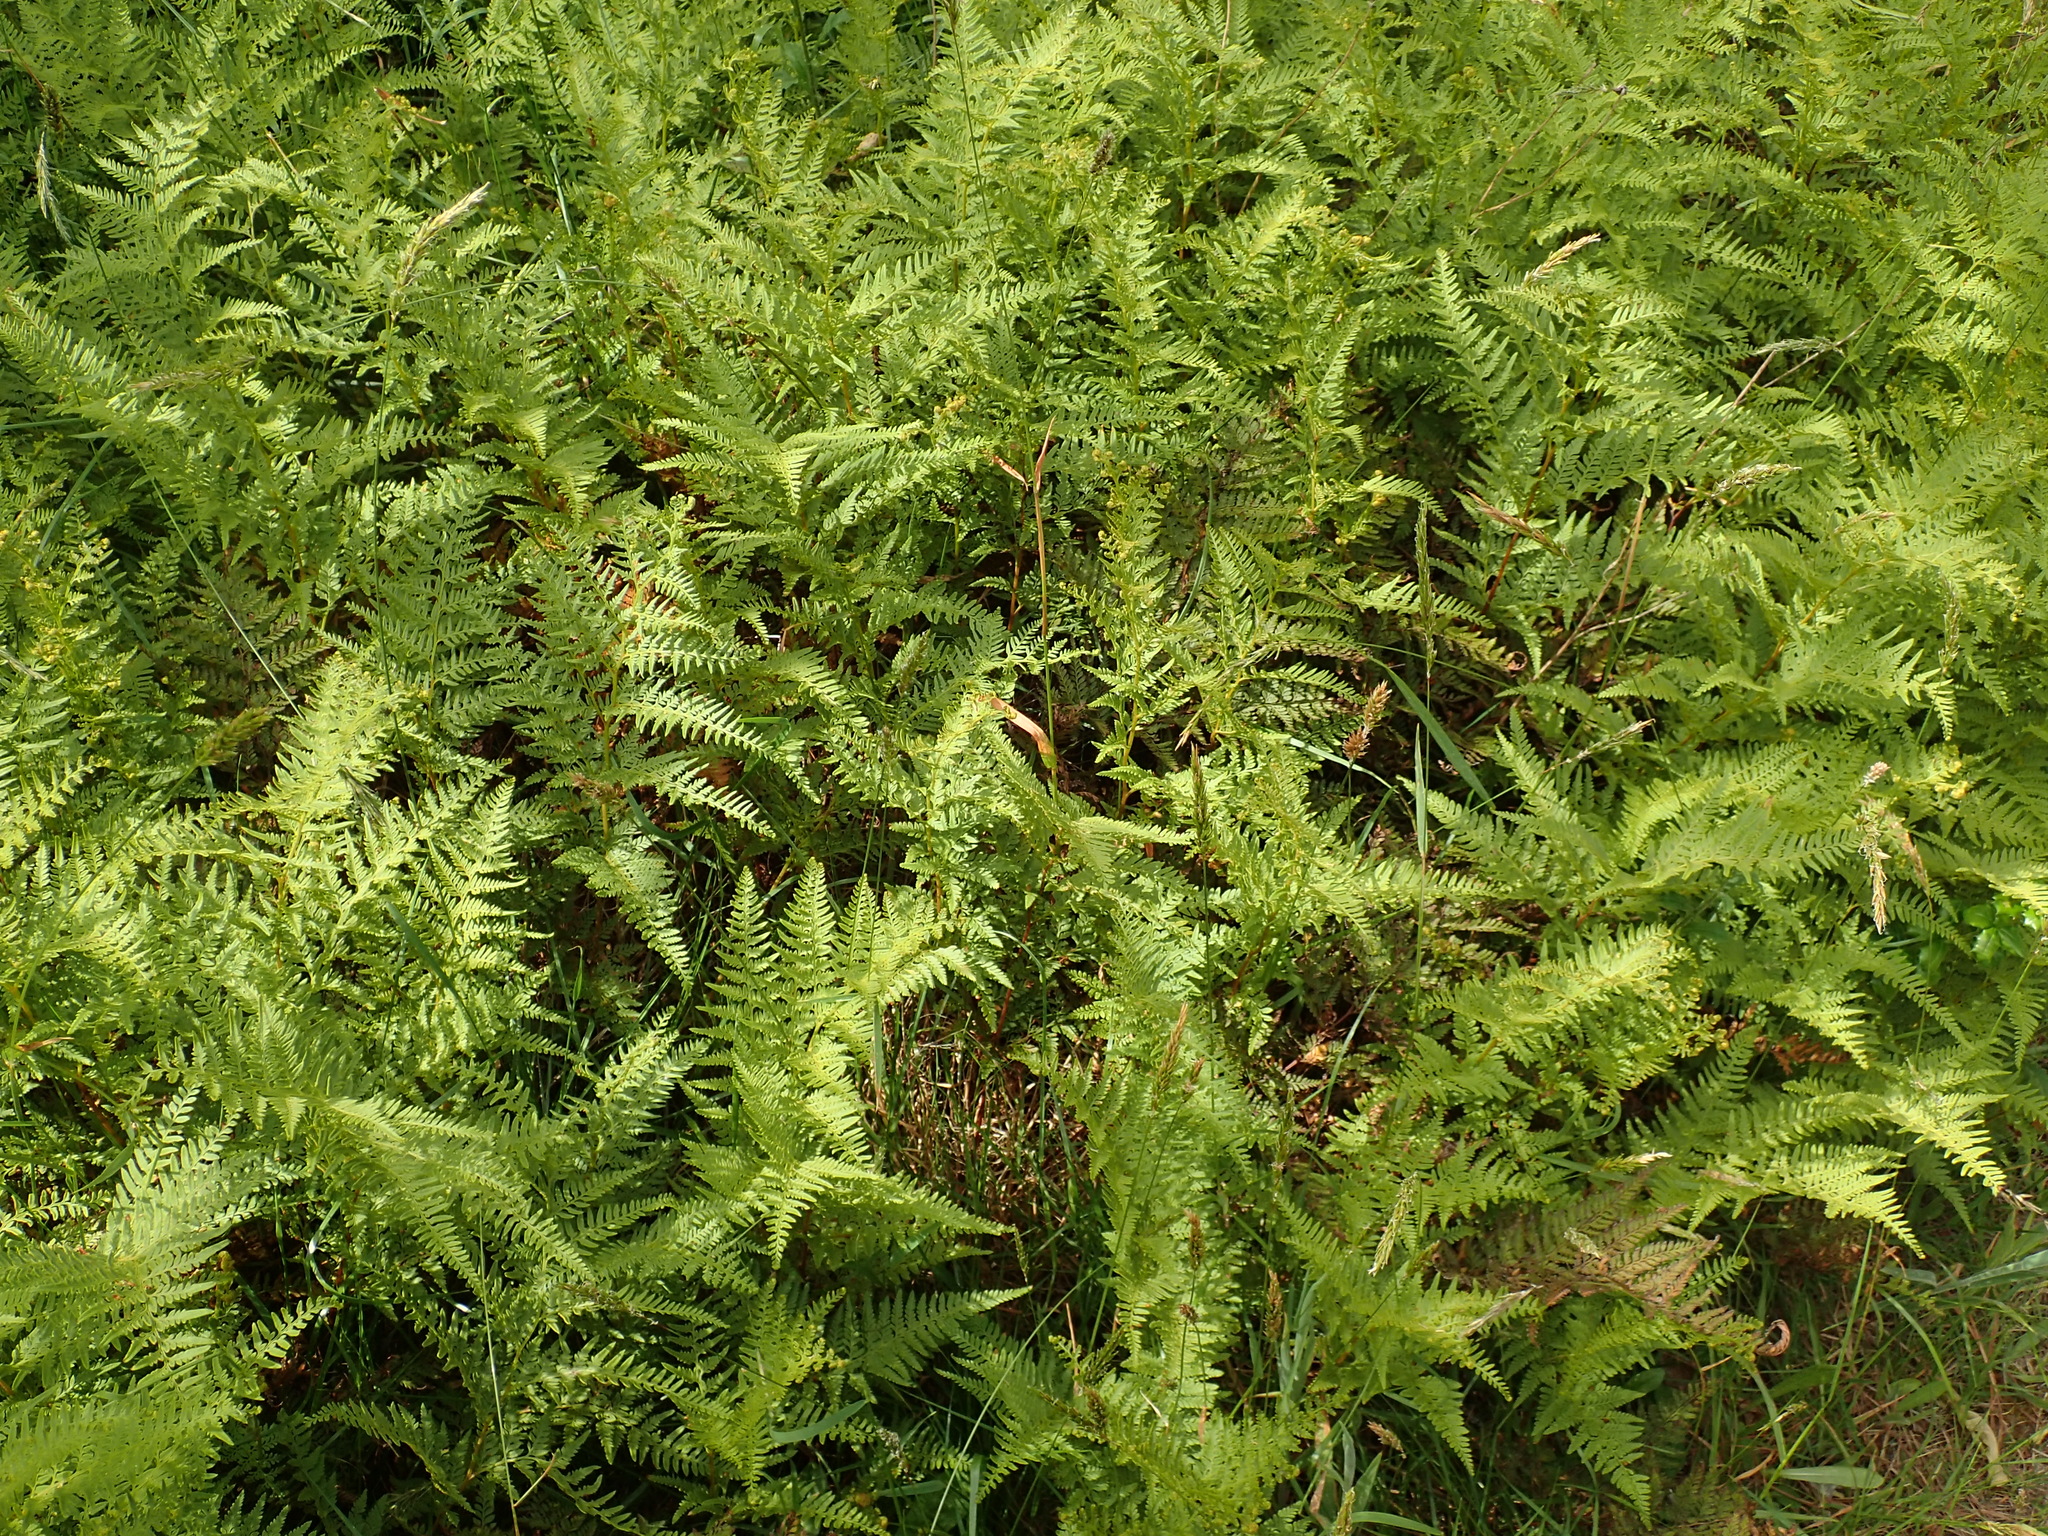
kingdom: Plantae
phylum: Tracheophyta
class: Polypodiopsida
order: Polypodiales
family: Dennstaedtiaceae
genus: Paesia
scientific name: Paesia scaberula
